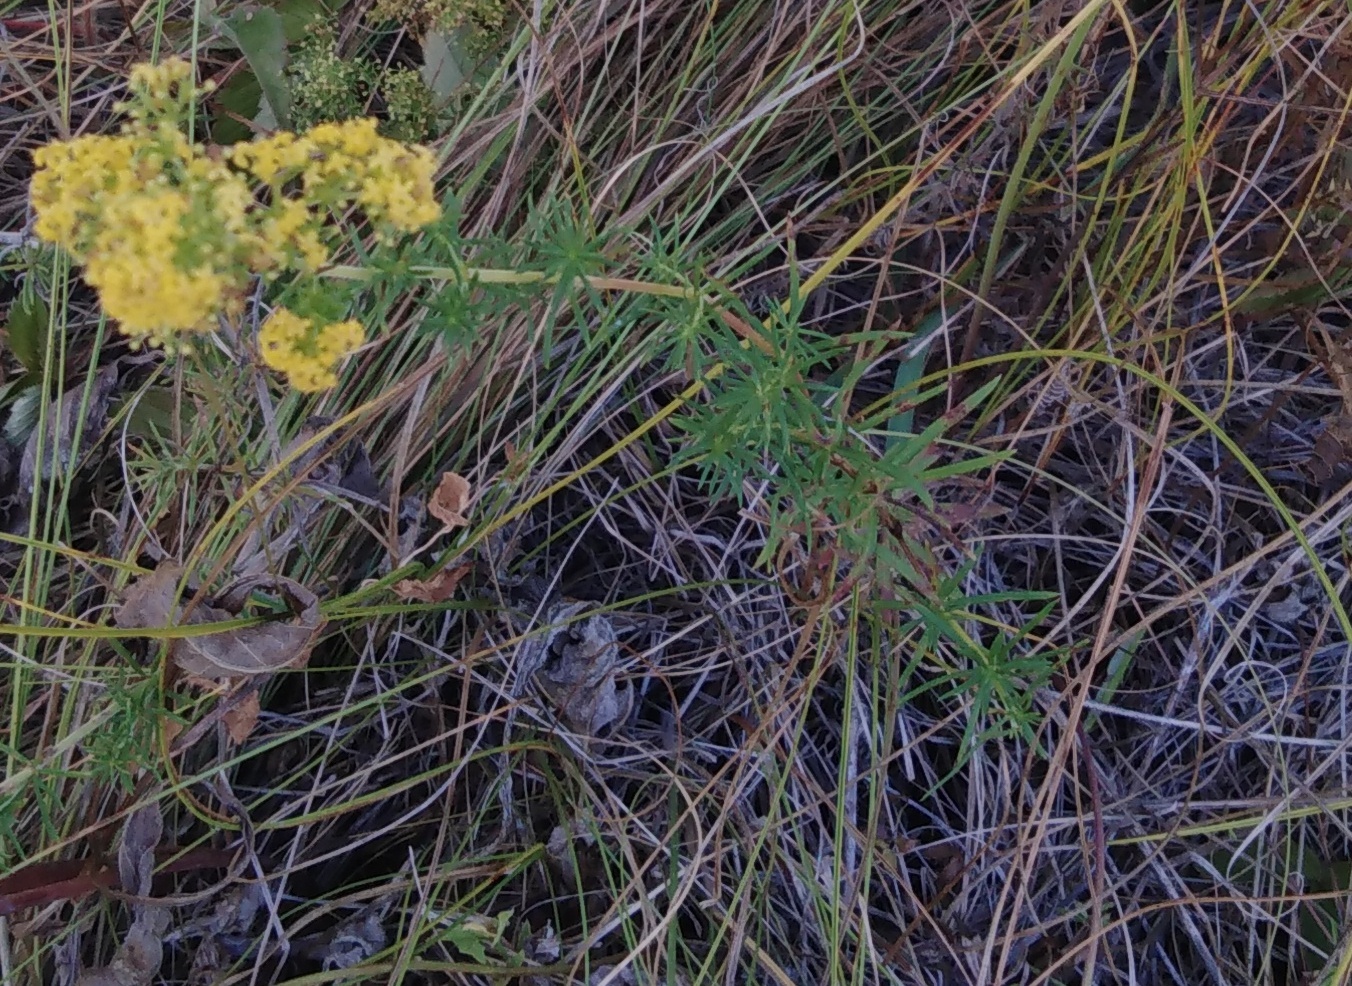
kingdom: Plantae
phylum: Tracheophyta
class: Magnoliopsida
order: Gentianales
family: Rubiaceae
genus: Galium
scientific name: Galium verum
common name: Lady's bedstraw
